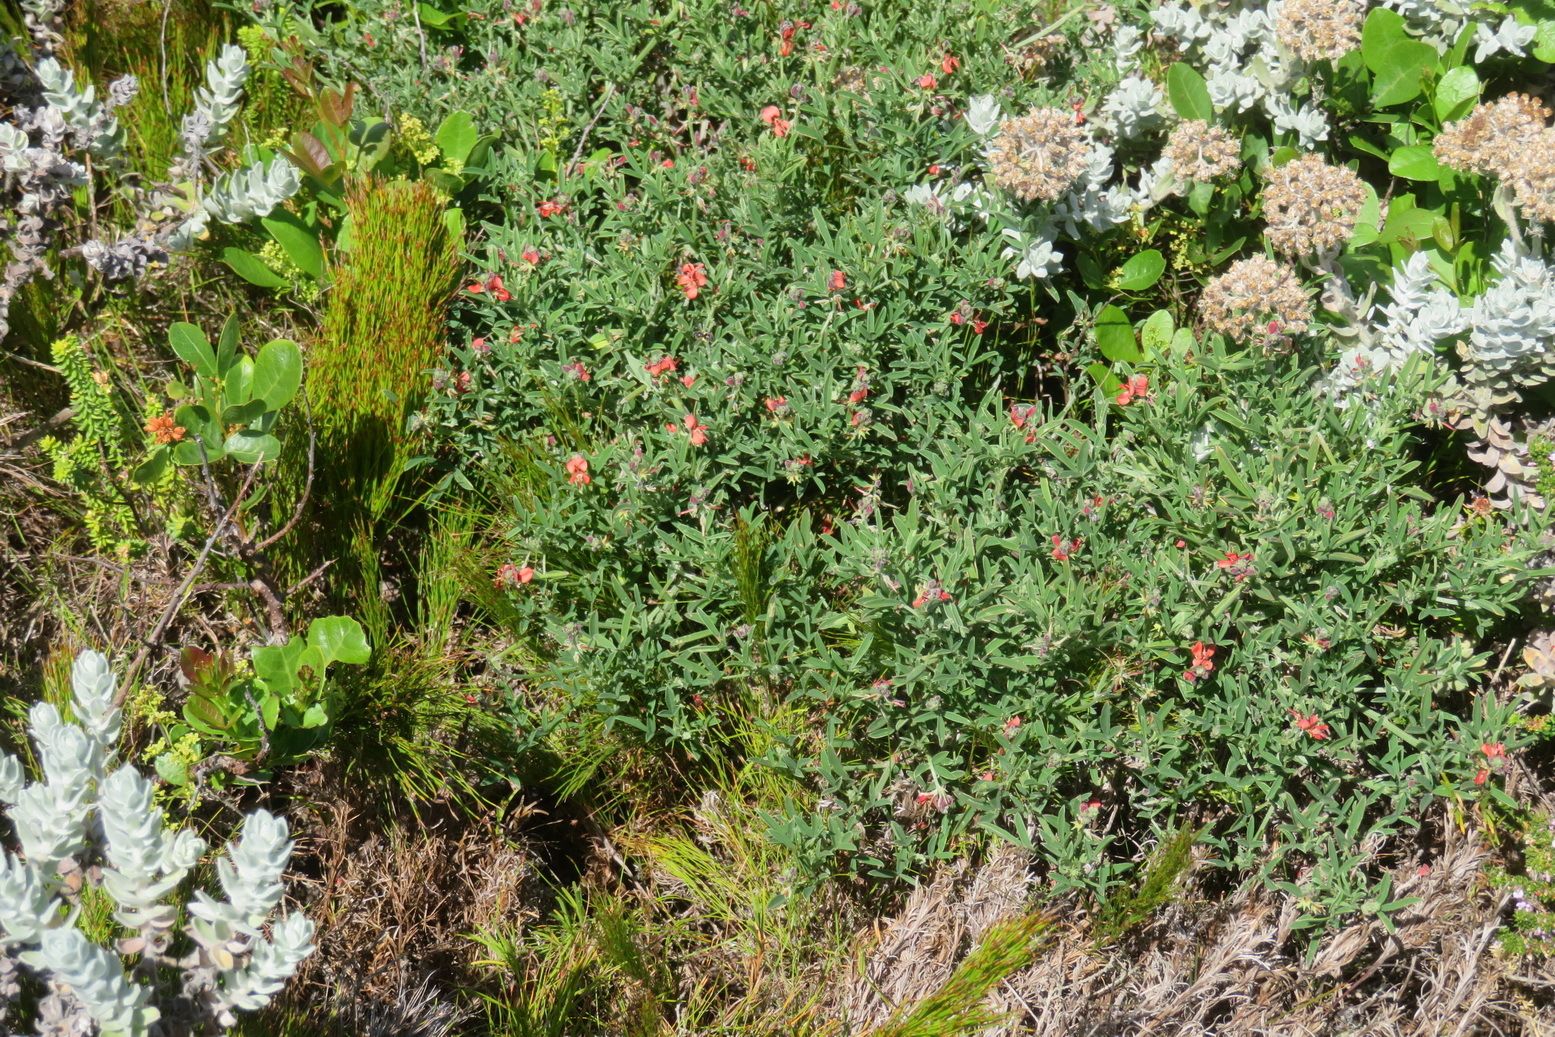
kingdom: Plantae
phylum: Tracheophyta
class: Magnoliopsida
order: Fabales
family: Fabaceae
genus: Indigofera
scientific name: Indigofera candicans
